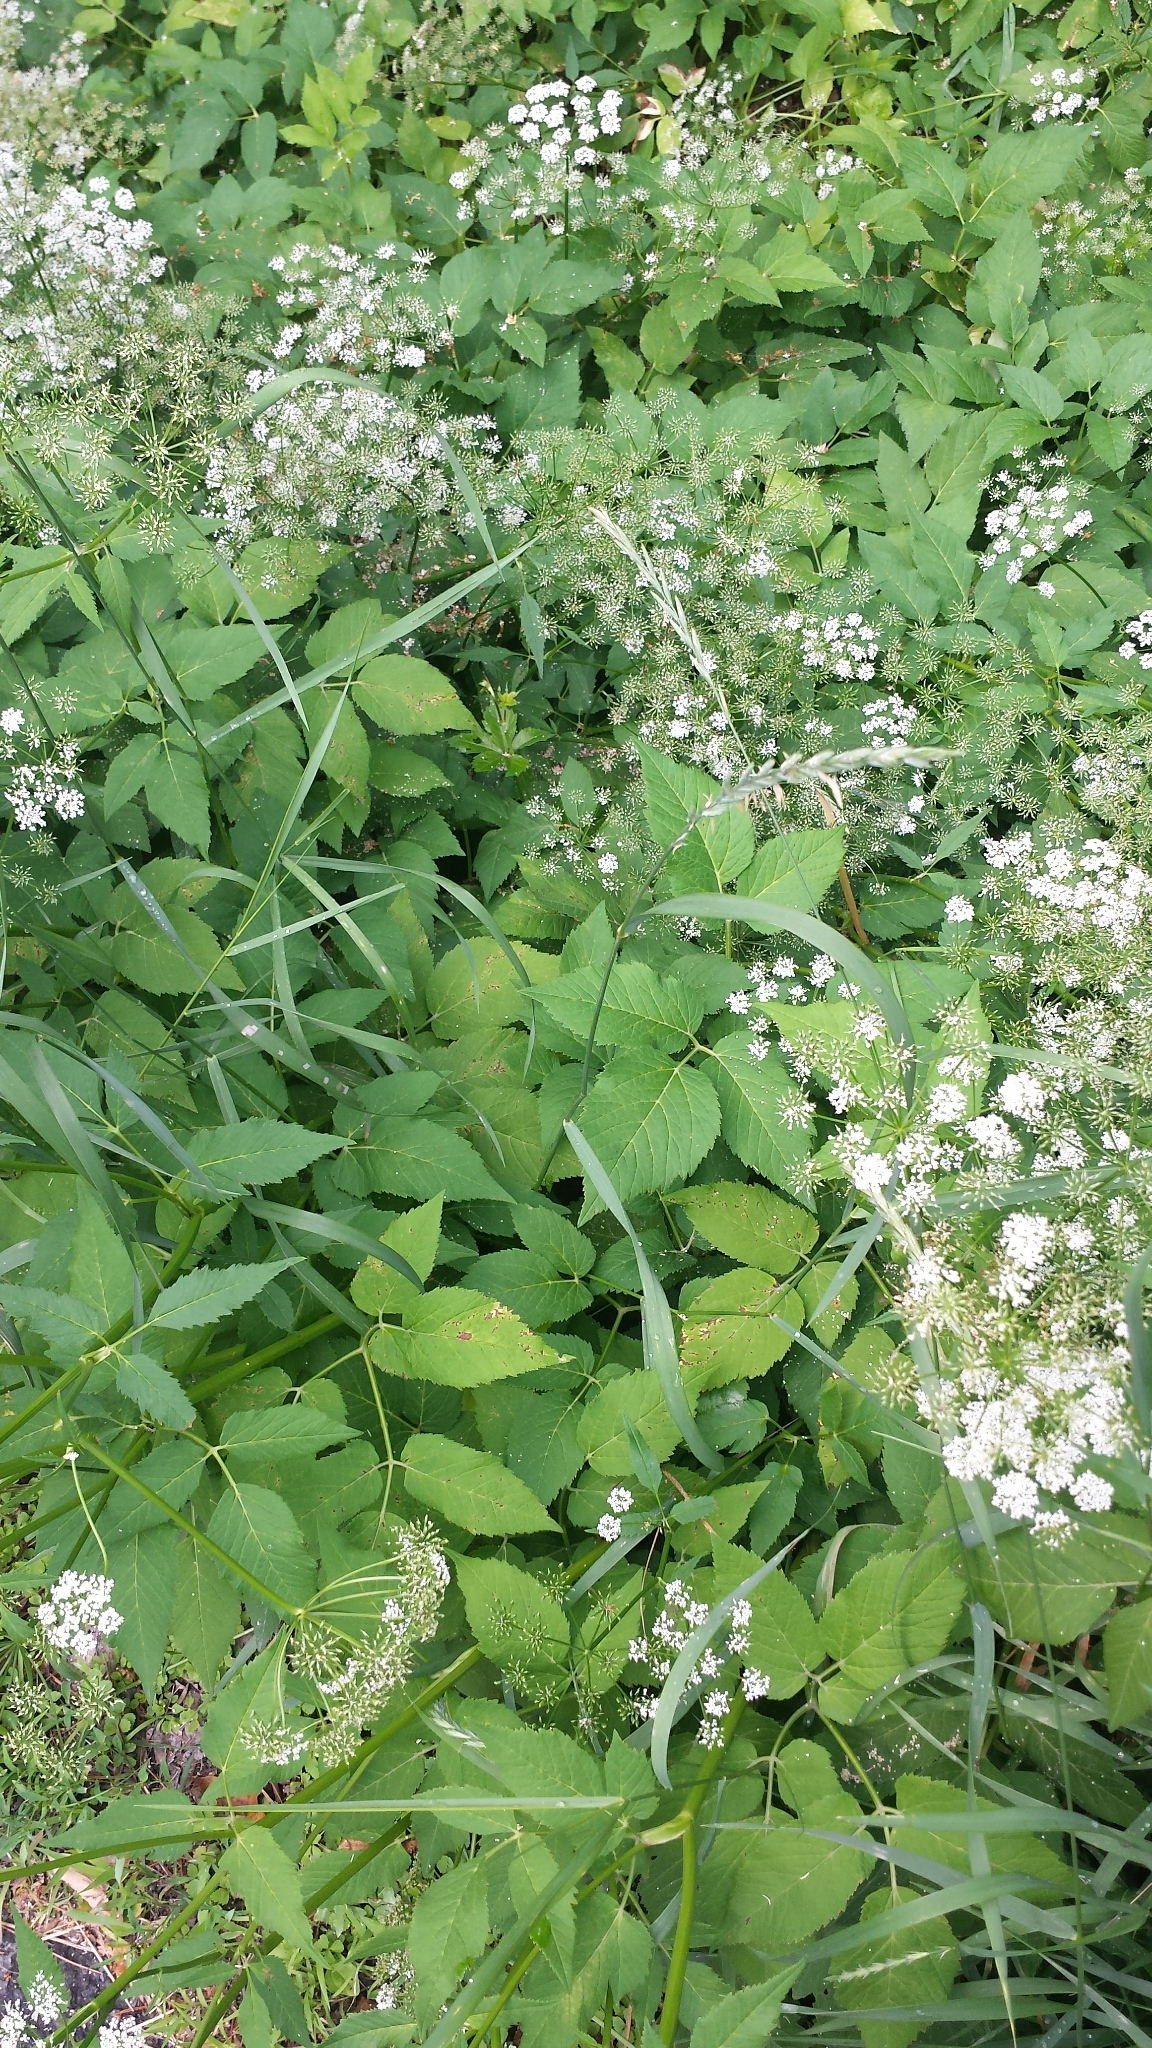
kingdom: Plantae
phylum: Tracheophyta
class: Magnoliopsida
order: Apiales
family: Apiaceae
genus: Aegopodium
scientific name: Aegopodium podagraria
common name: Ground-elder
